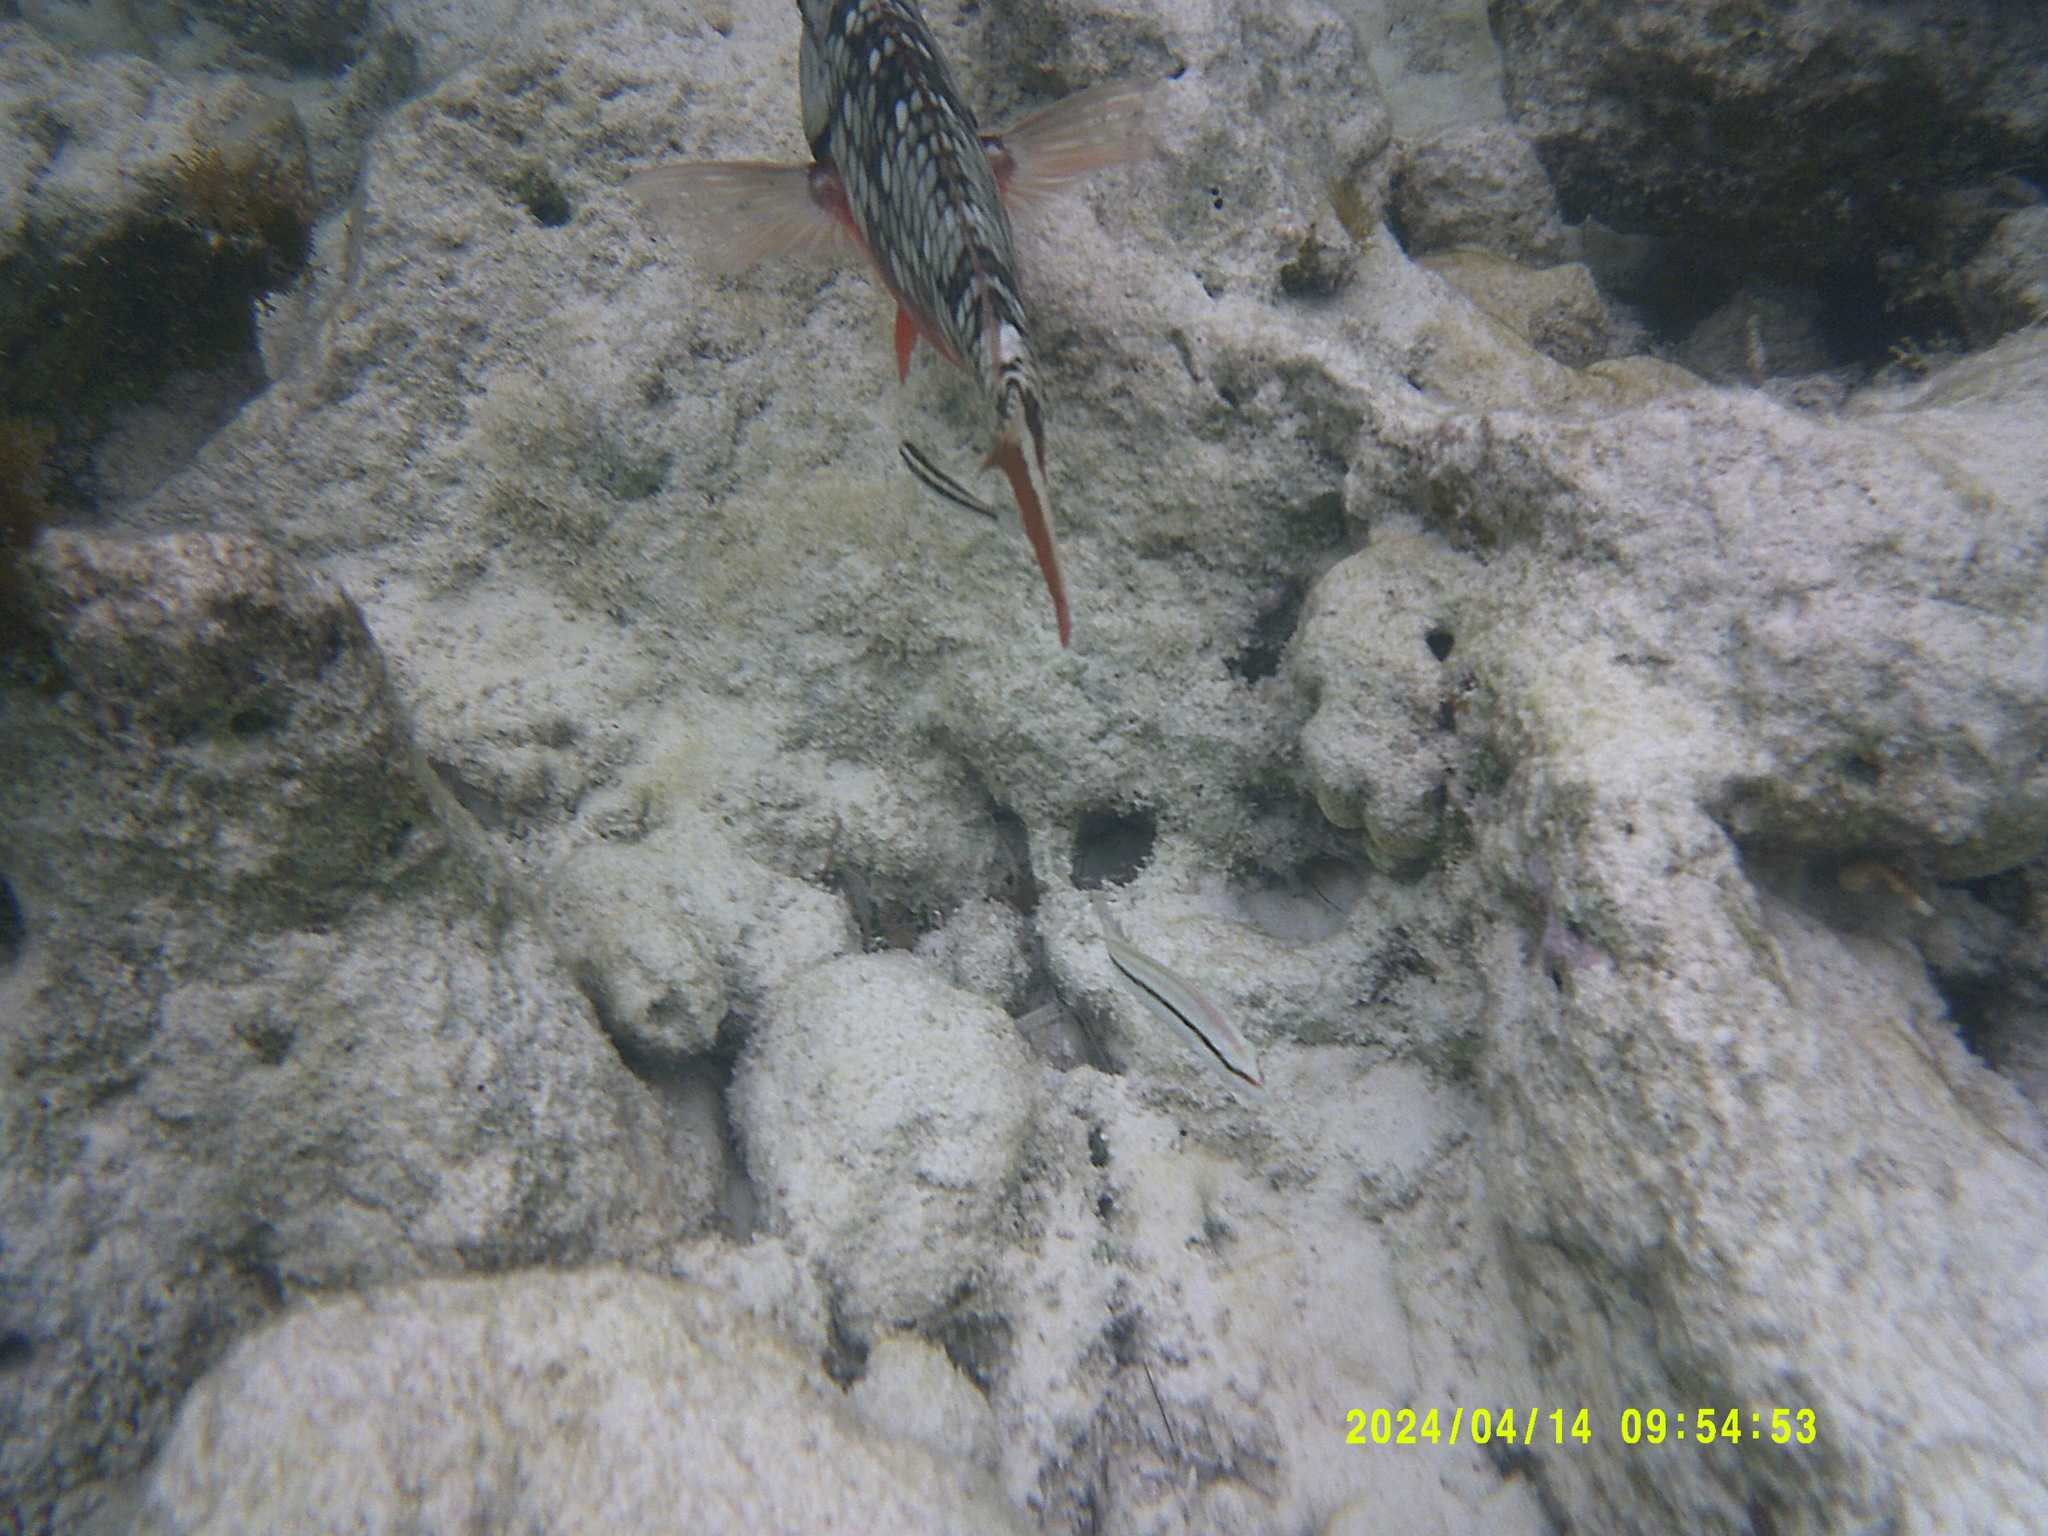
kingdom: Animalia
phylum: Chordata
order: Perciformes
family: Scaridae
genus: Sparisoma
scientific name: Sparisoma viride
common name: Stoplight parrotfish
